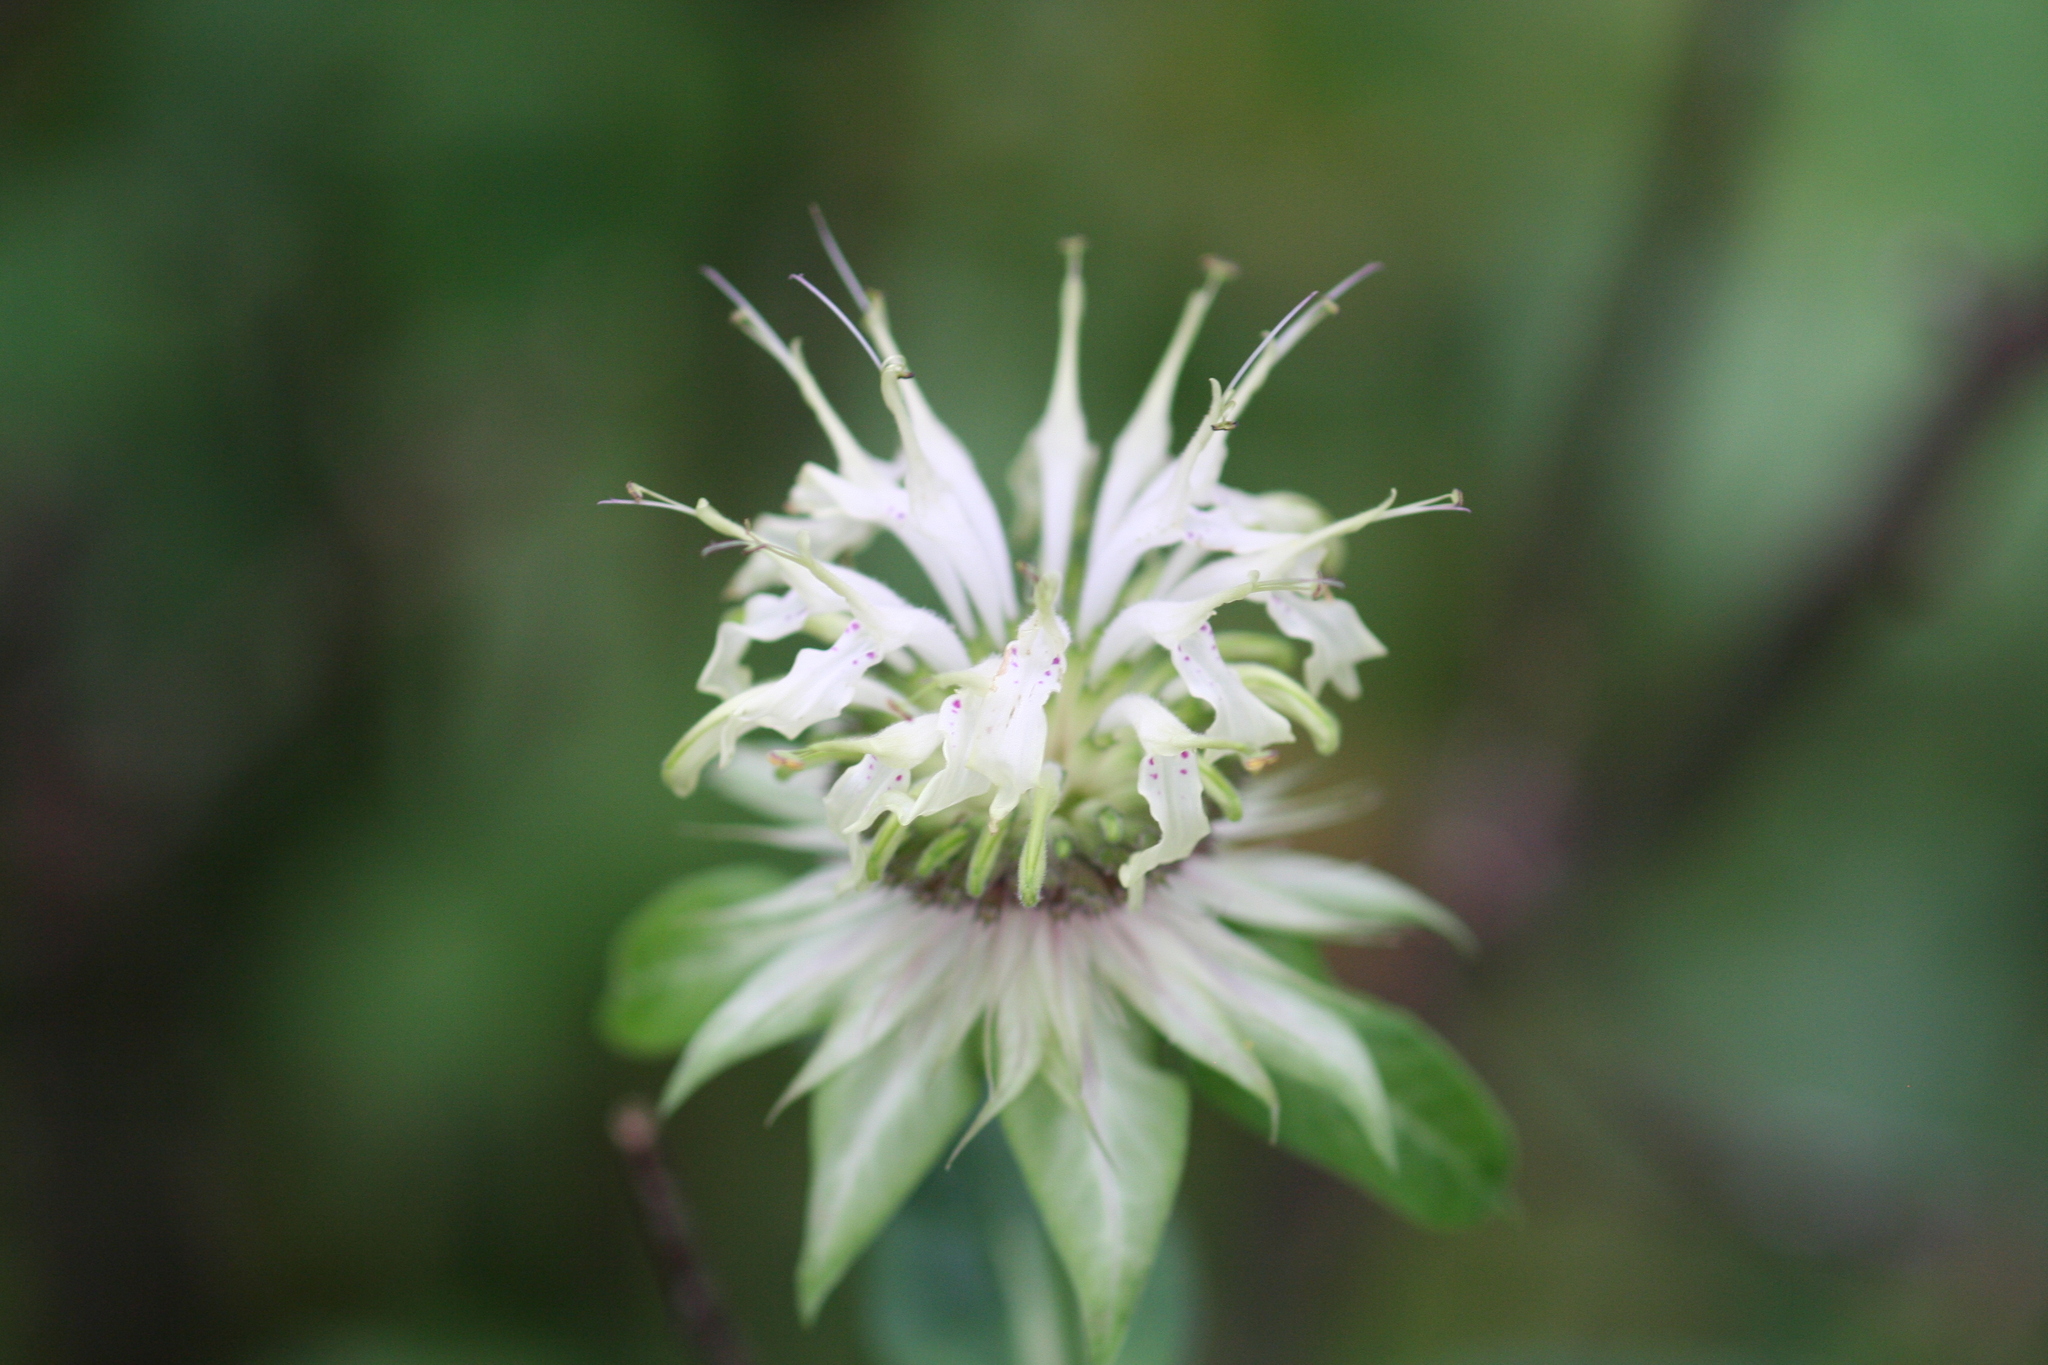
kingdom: Plantae
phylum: Tracheophyta
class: Magnoliopsida
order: Lamiales
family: Lamiaceae
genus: Monarda
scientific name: Monarda clinopodia
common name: Basil beebalm
